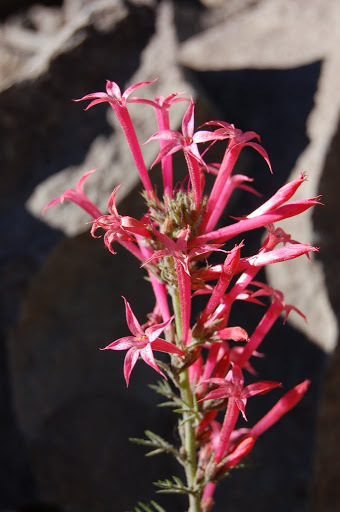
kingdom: Plantae
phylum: Tracheophyta
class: Magnoliopsida
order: Ericales
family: Polemoniaceae
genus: Ipomopsis
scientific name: Ipomopsis aggregata
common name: Scarlet gilia
